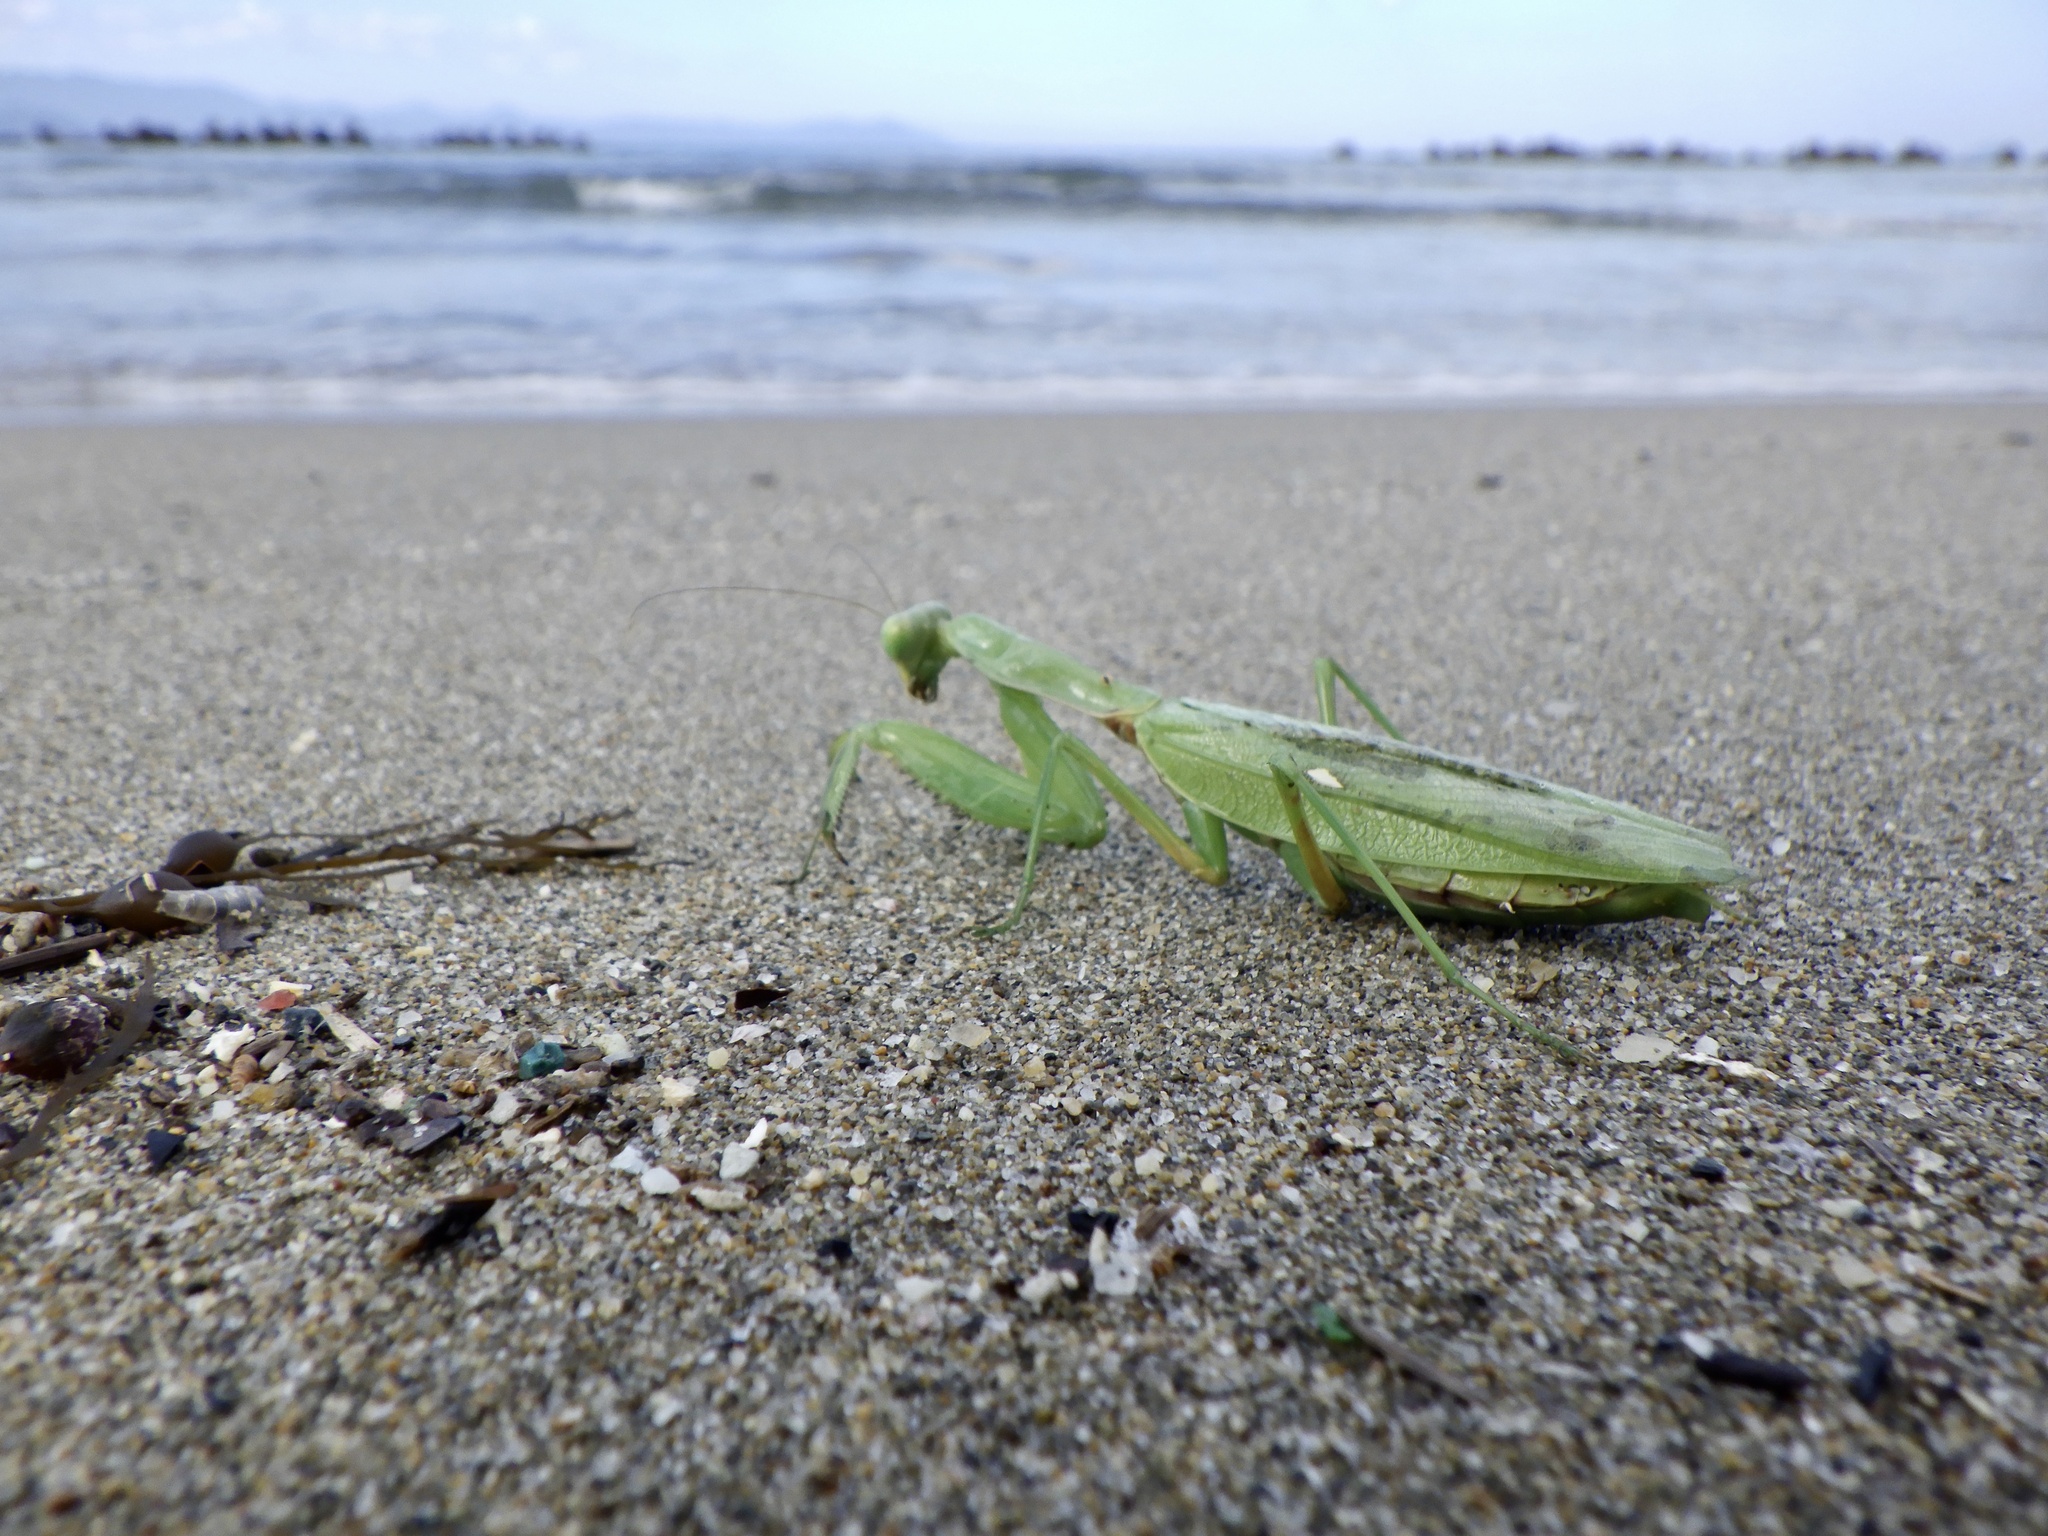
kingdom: Animalia
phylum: Arthropoda
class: Insecta
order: Mantodea
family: Mantidae
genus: Hierodula
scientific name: Hierodula patellifera
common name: Asian mantis
